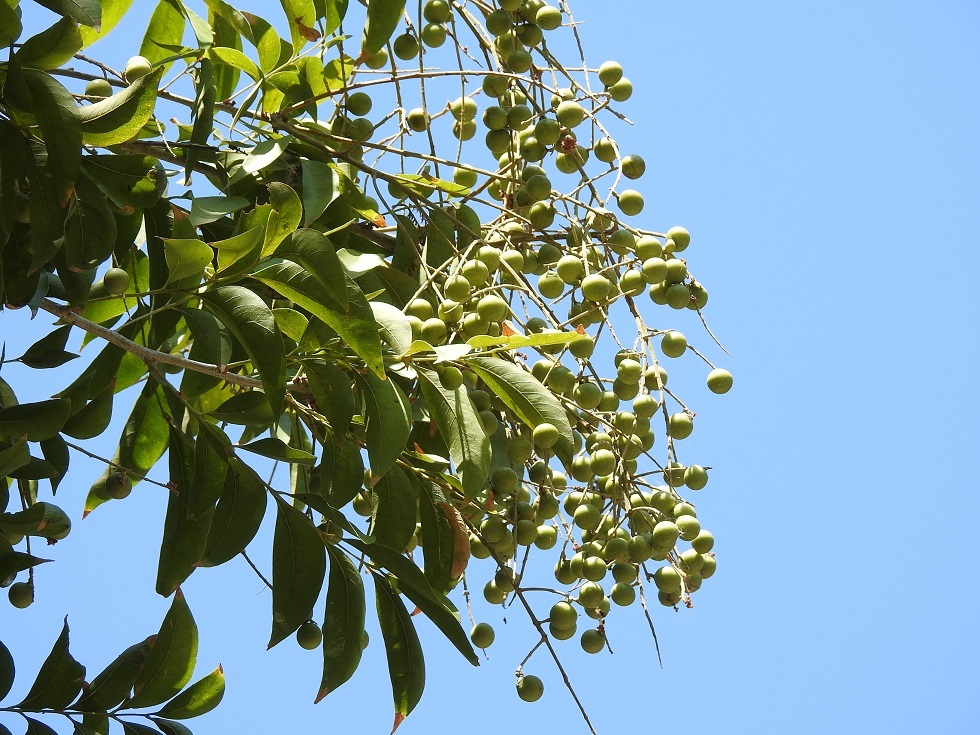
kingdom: Plantae
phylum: Tracheophyta
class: Magnoliopsida
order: Sapindales
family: Sapindaceae
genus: Sapindus
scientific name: Sapindus drummondii
